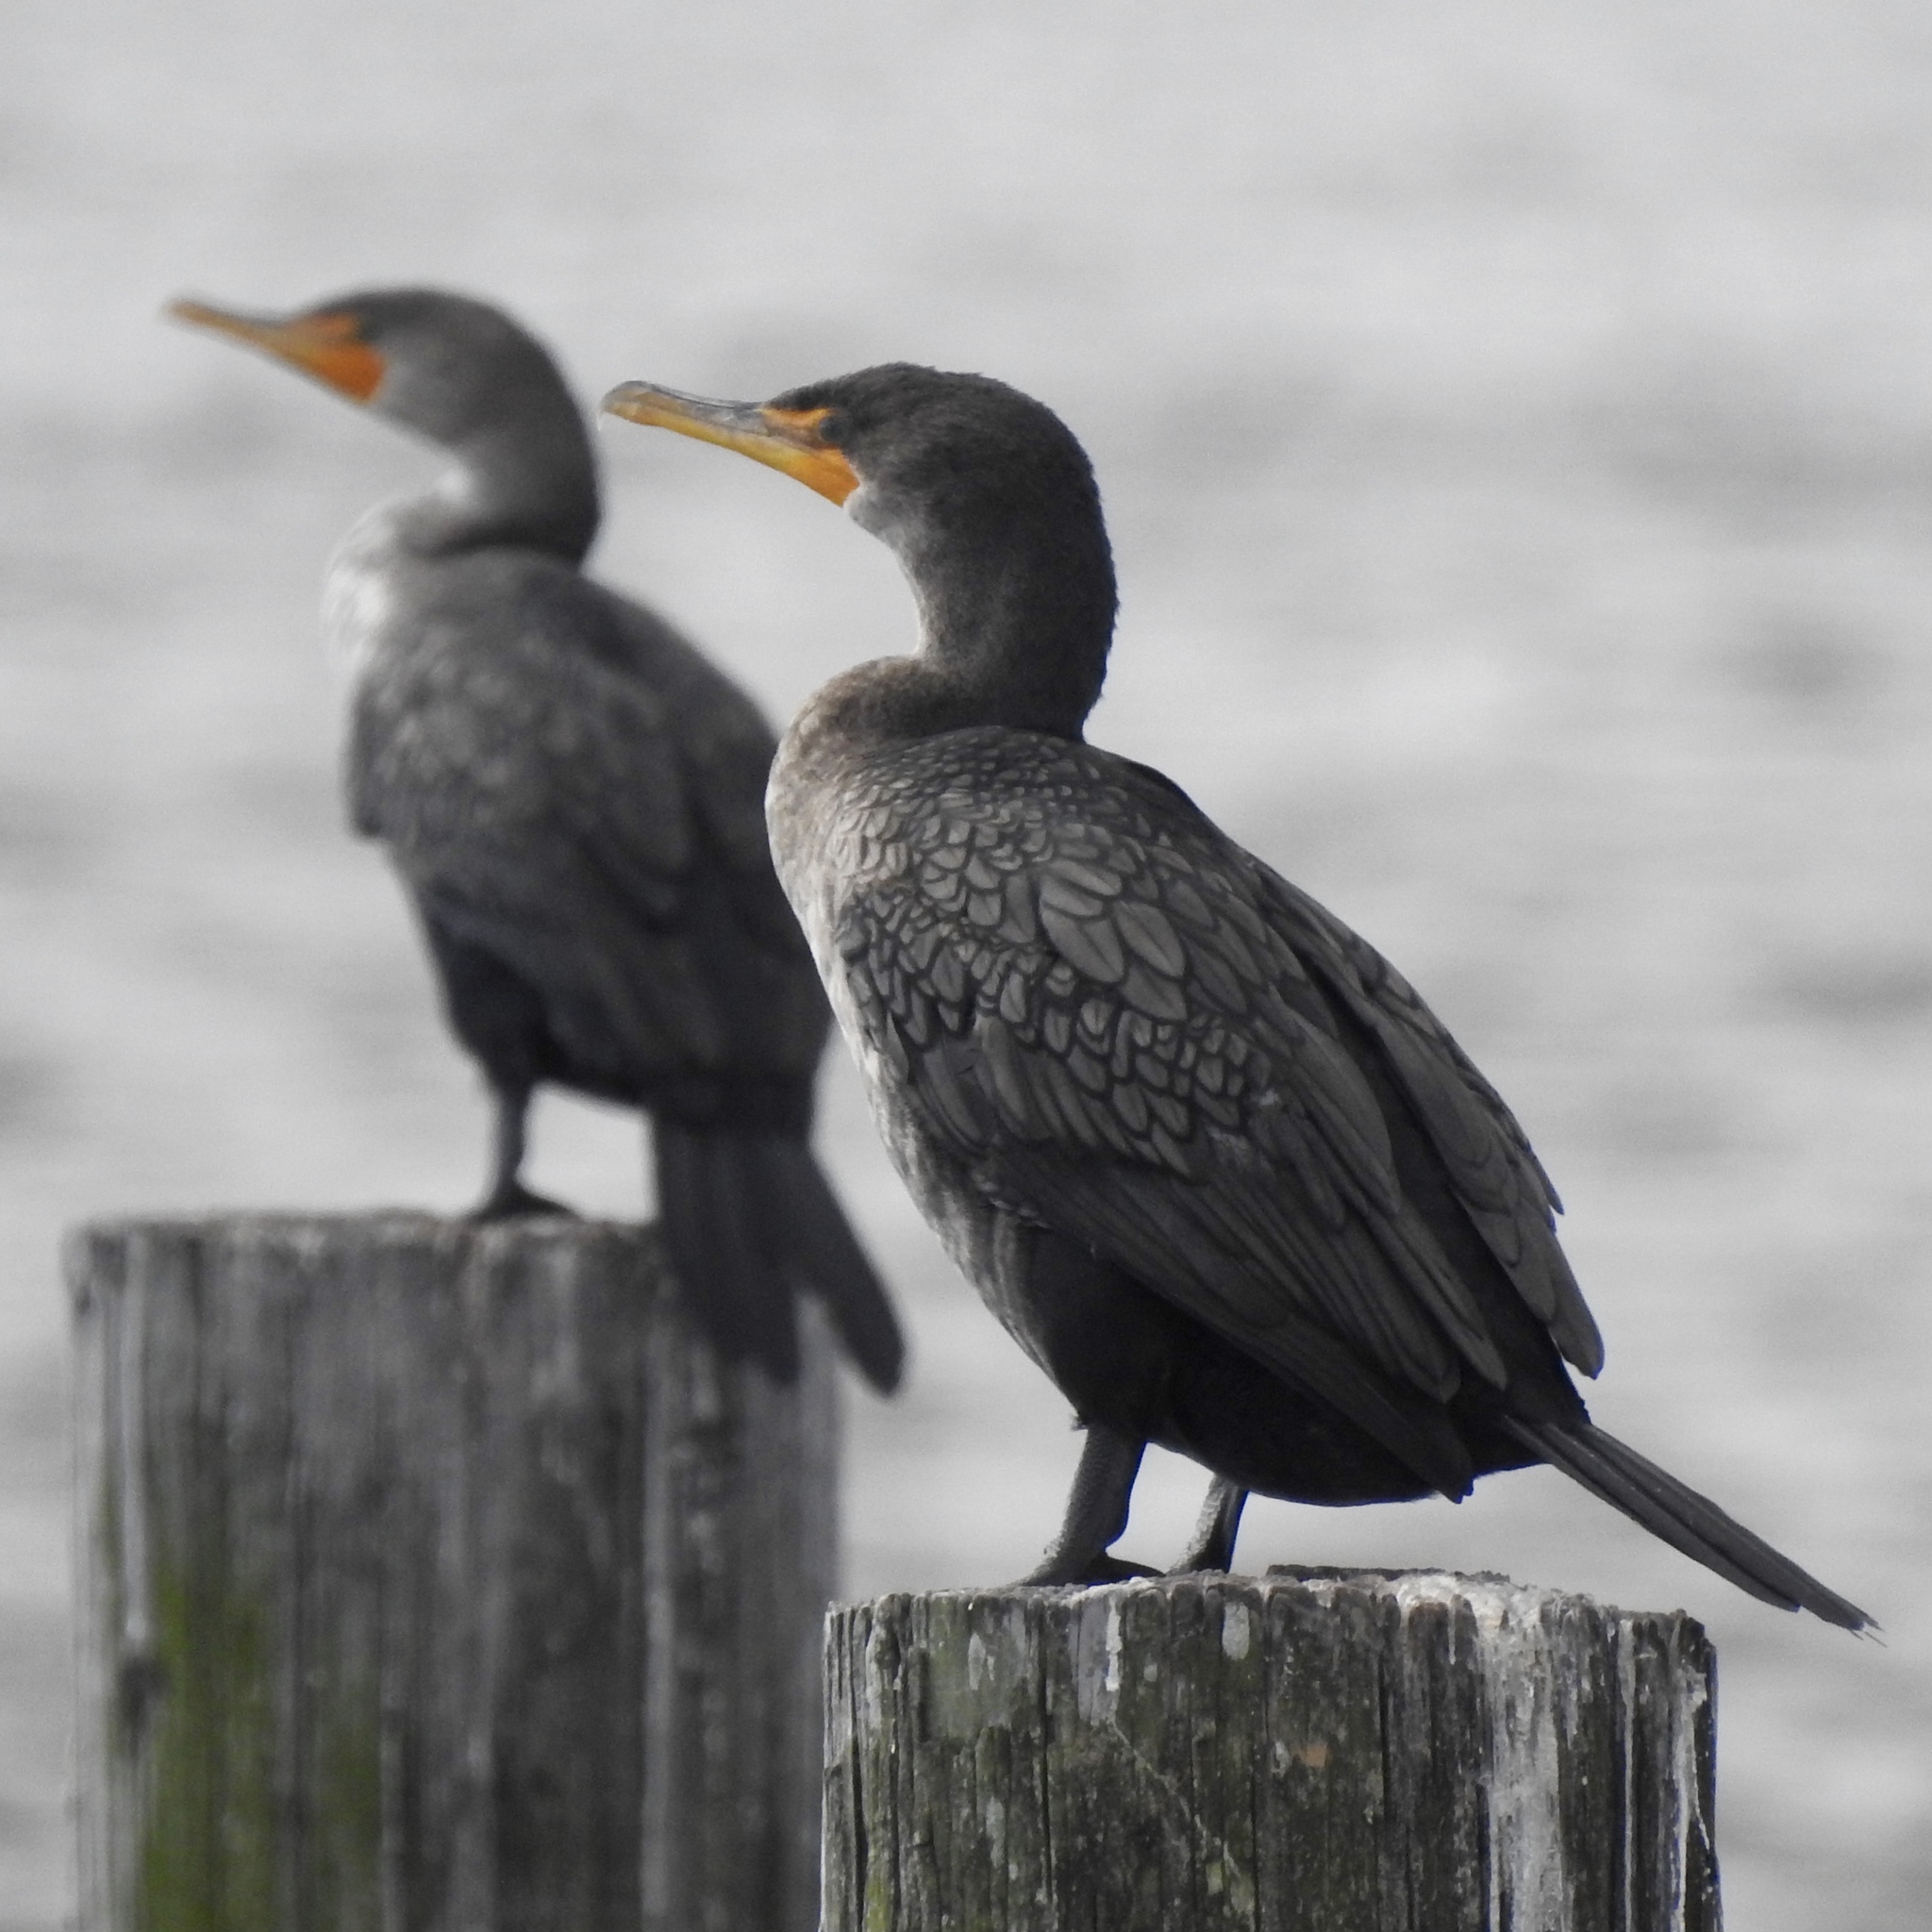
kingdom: Animalia
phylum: Chordata
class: Aves
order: Suliformes
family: Phalacrocoracidae
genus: Phalacrocorax
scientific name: Phalacrocorax auritus
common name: Double-crested cormorant
